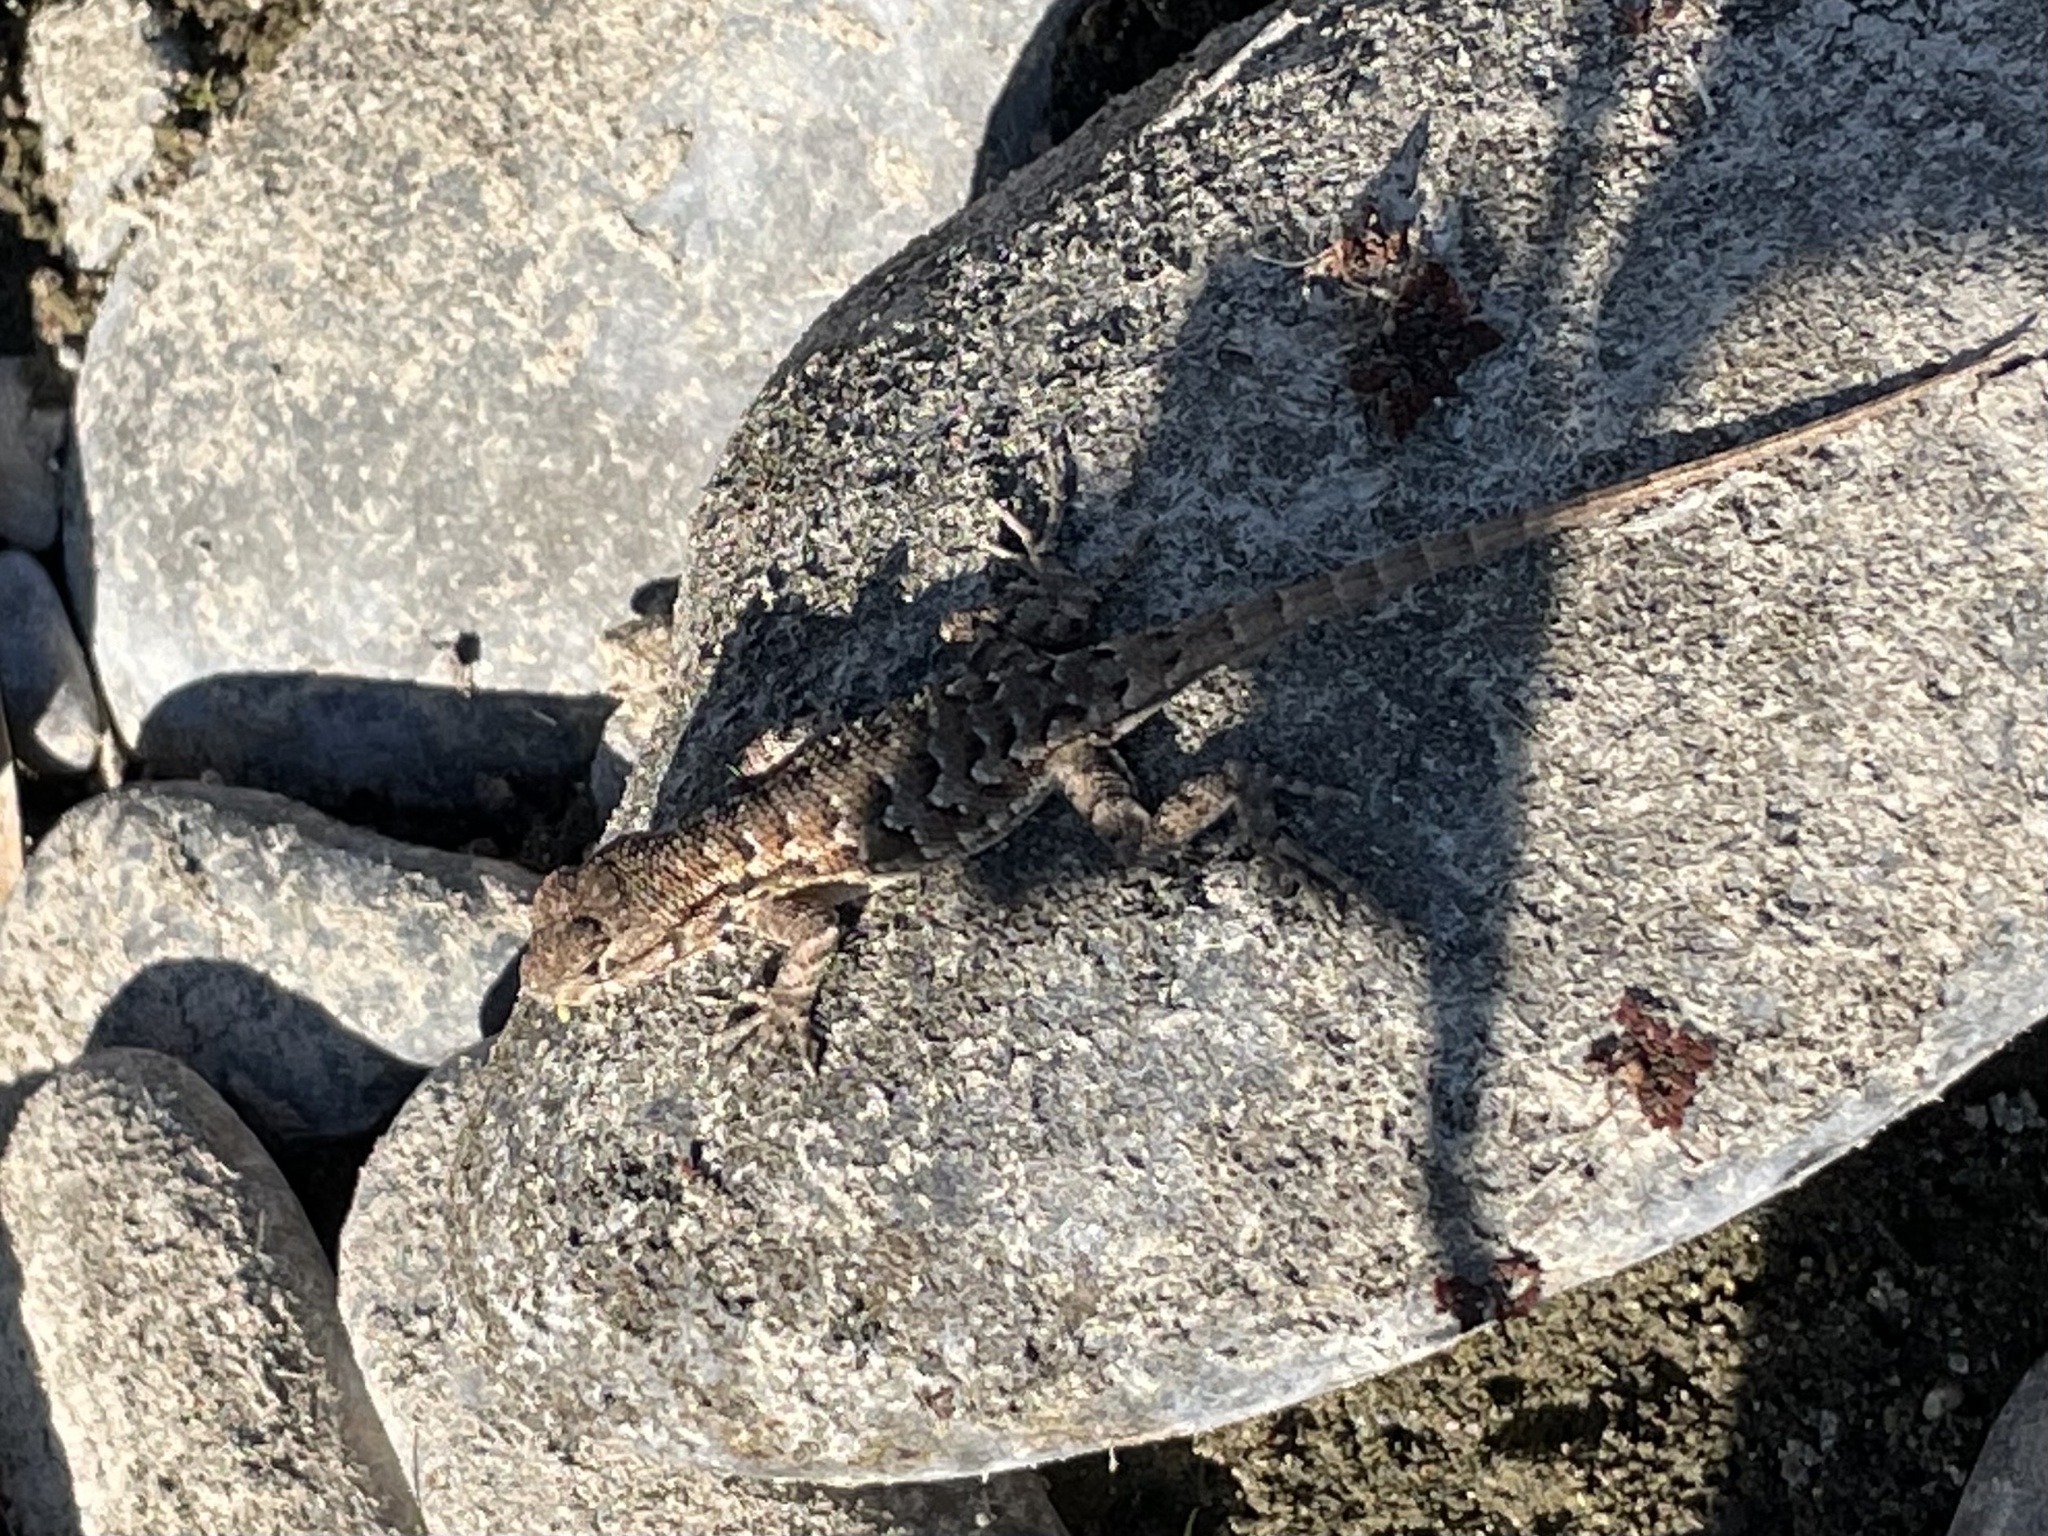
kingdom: Animalia
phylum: Chordata
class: Squamata
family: Phrynosomatidae
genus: Sceloporus
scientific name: Sceloporus occidentalis
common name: Western fence lizard
